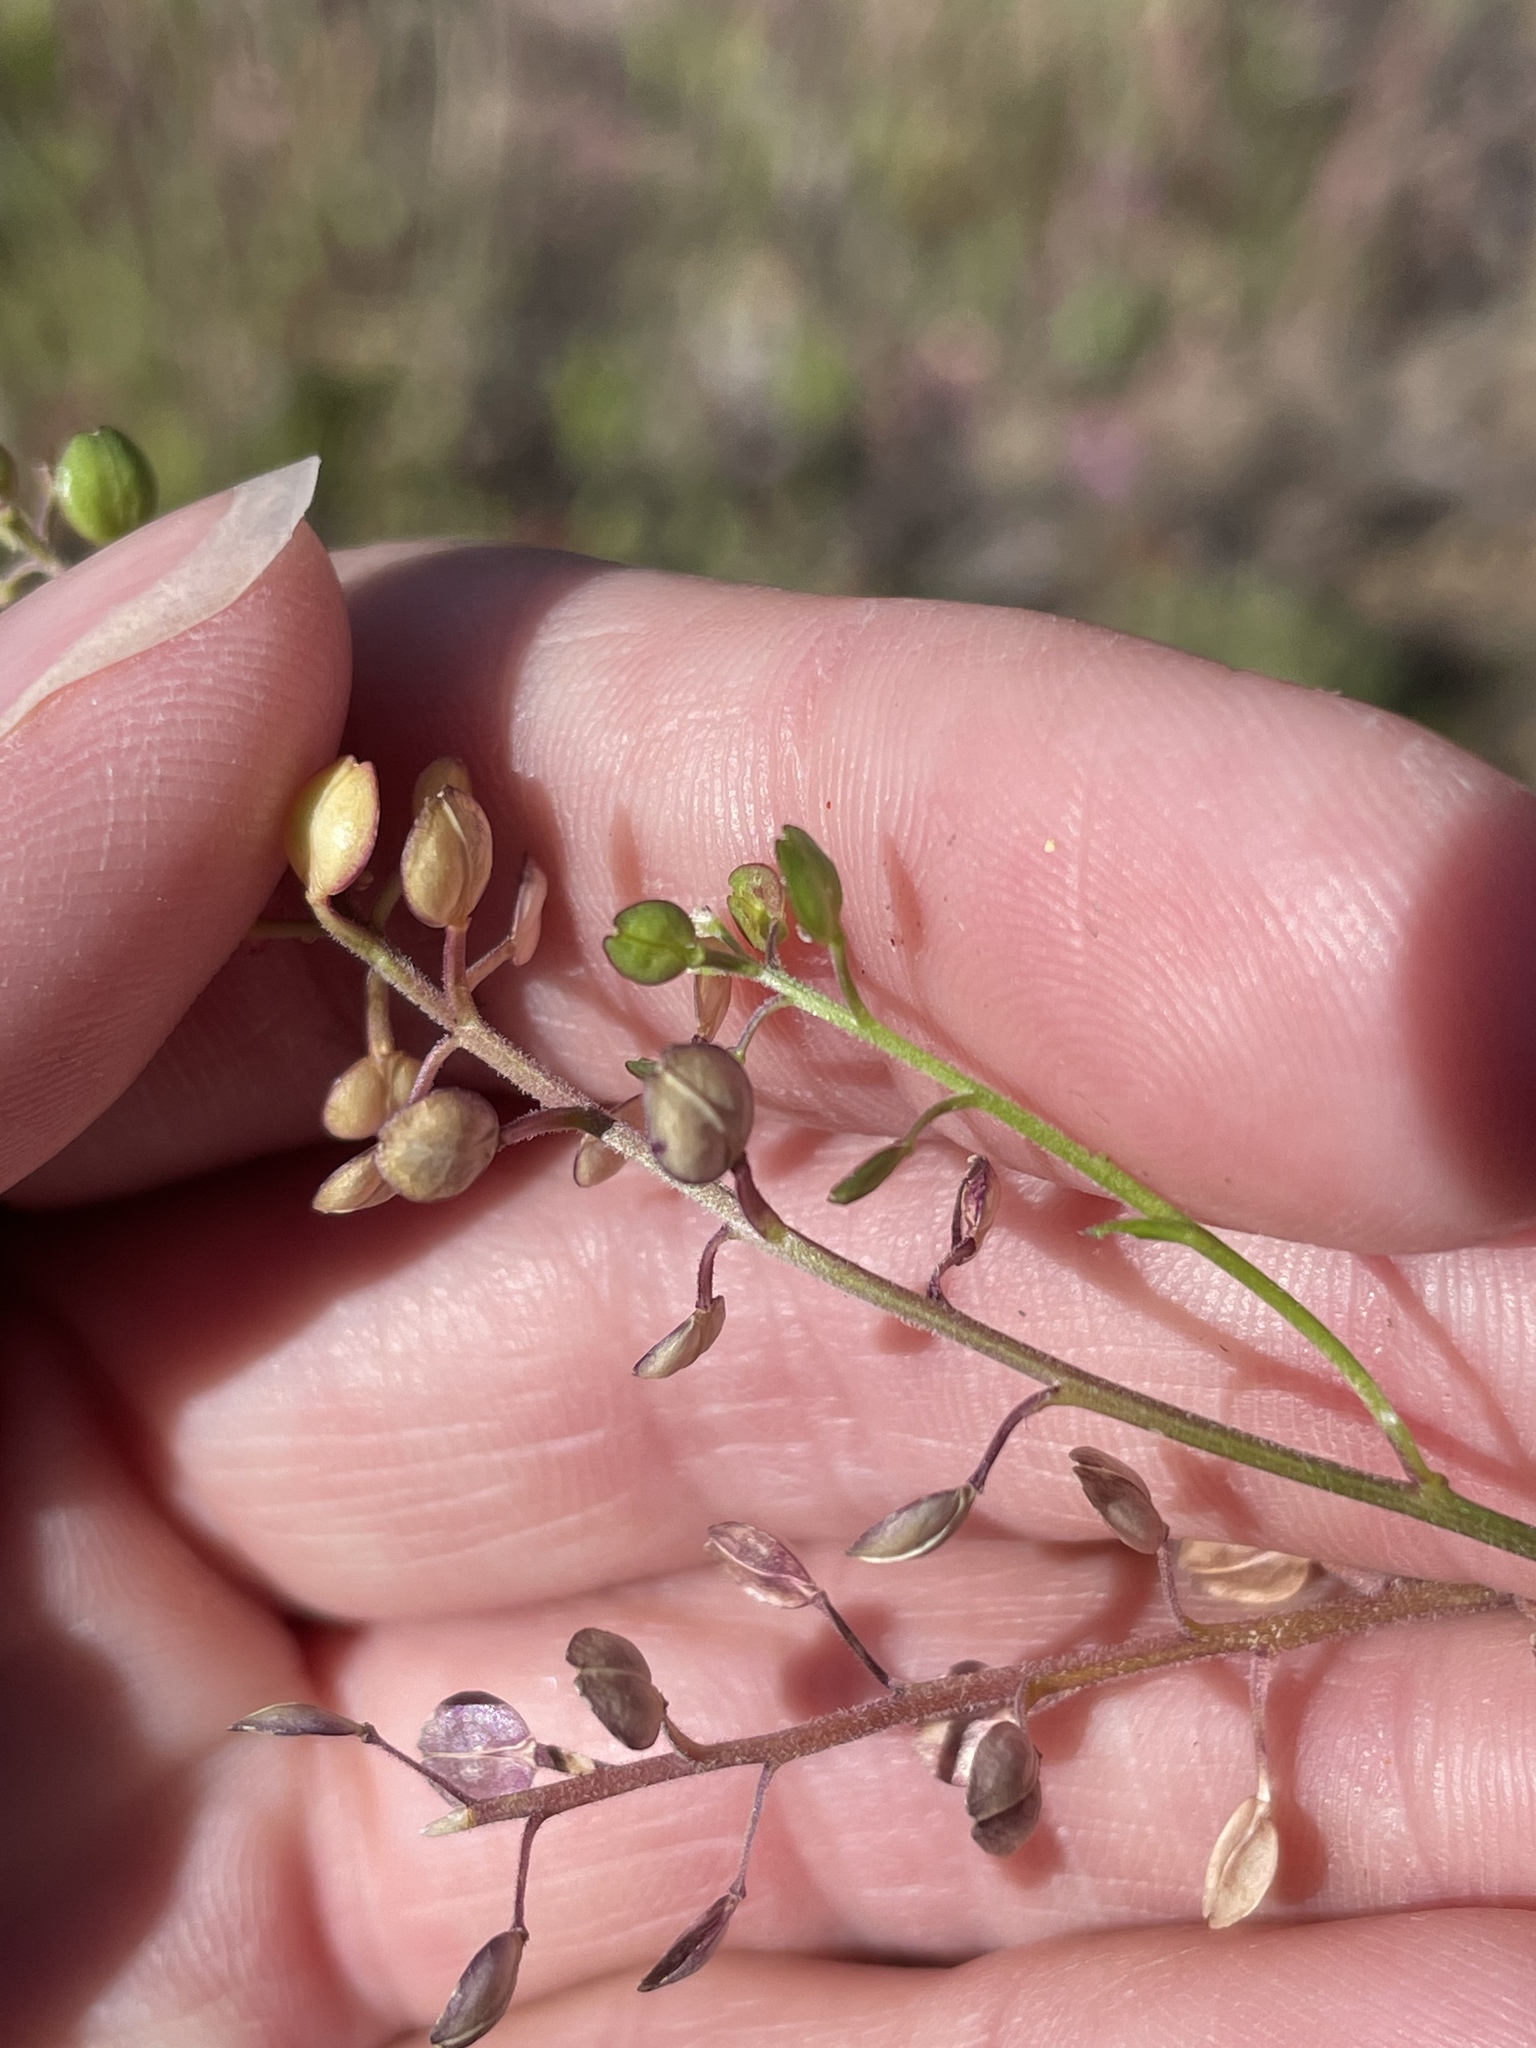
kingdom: Plantae
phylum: Tracheophyta
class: Magnoliopsida
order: Brassicales
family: Brassicaceae
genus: Lepidium
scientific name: Lepidium nitidum
